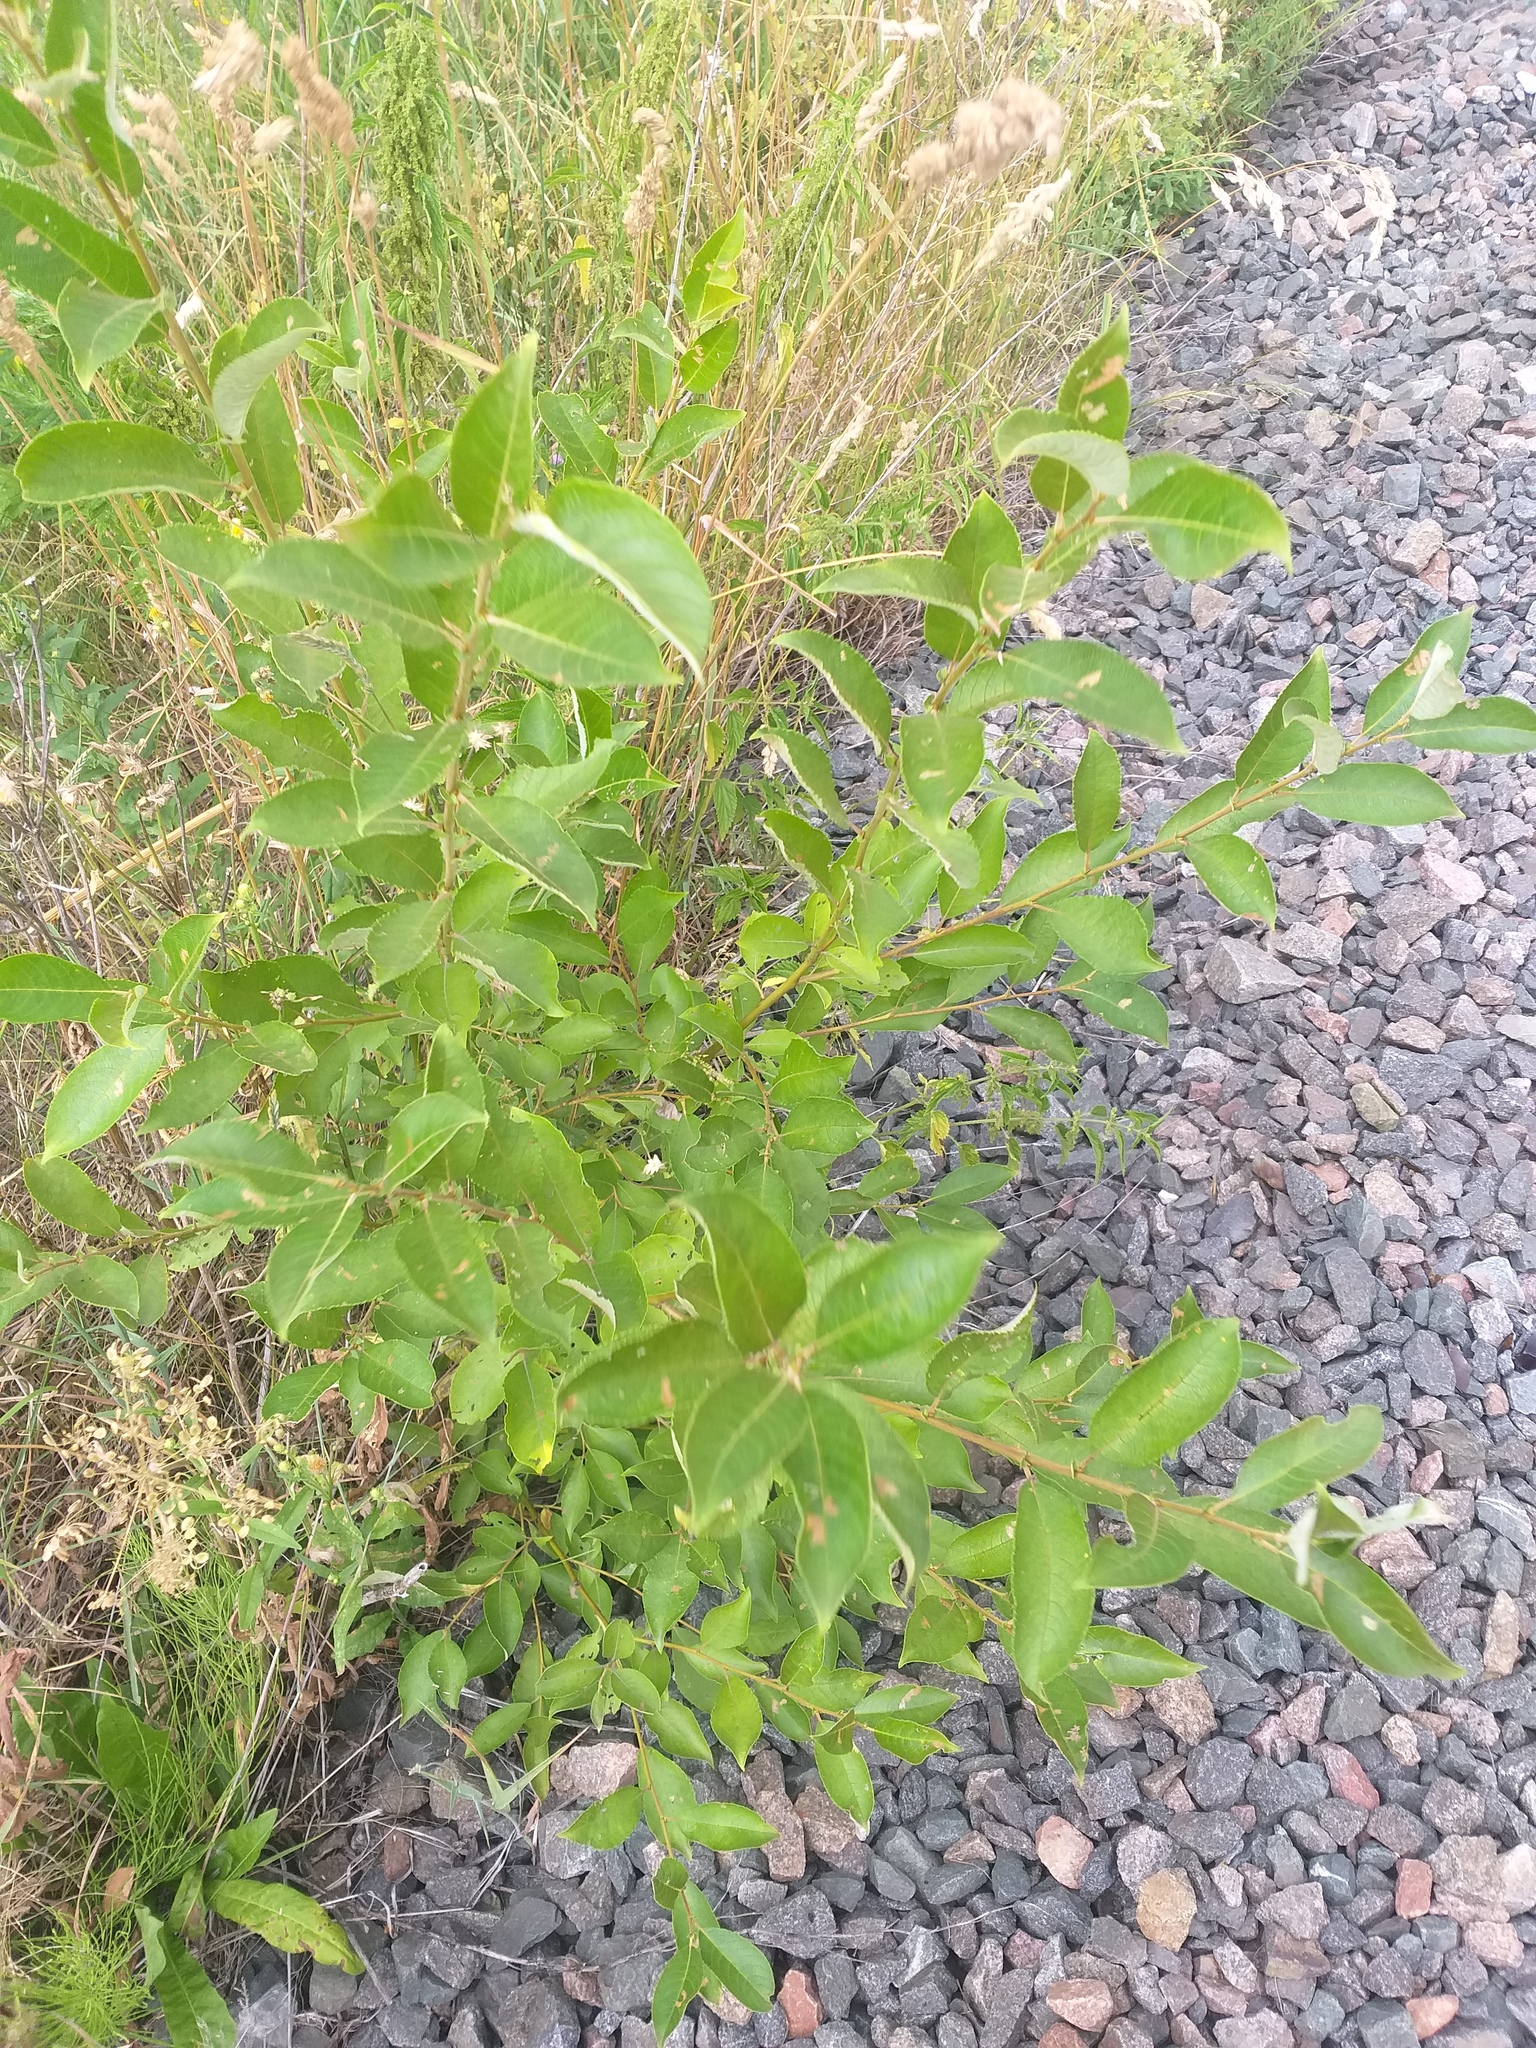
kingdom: Plantae
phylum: Tracheophyta
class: Magnoliopsida
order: Malpighiales
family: Salicaceae
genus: Salix
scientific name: Salix caprea
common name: Goat willow
